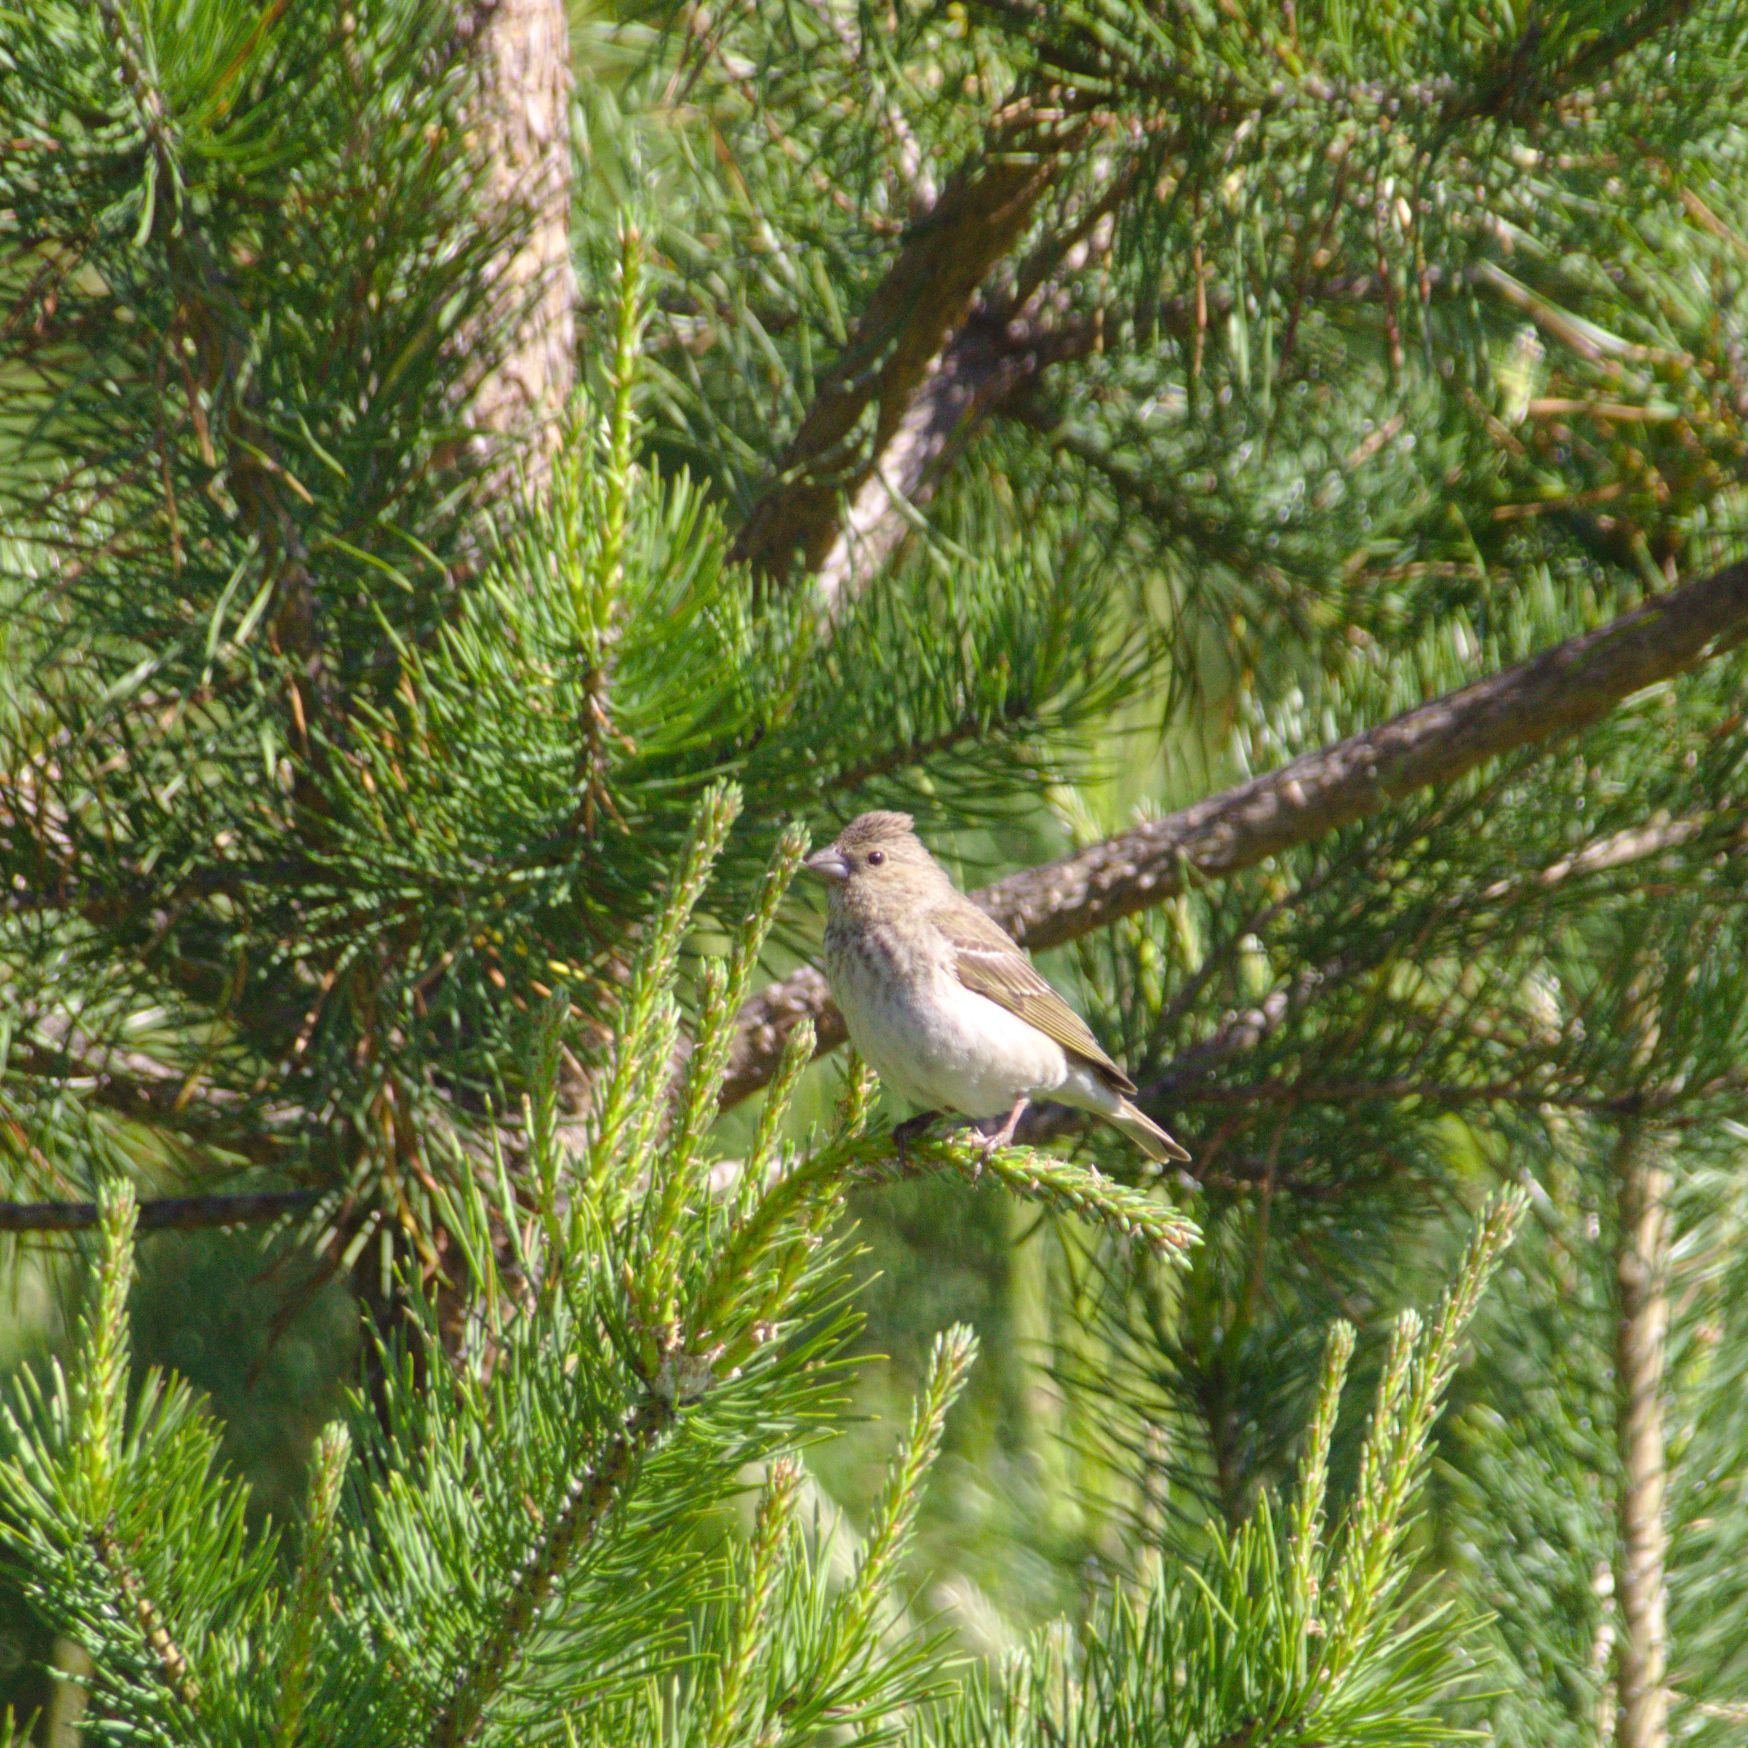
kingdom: Animalia
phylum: Chordata
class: Aves
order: Passeriformes
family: Fringillidae
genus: Carpodacus
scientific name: Carpodacus erythrinus
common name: Common rosefinch
